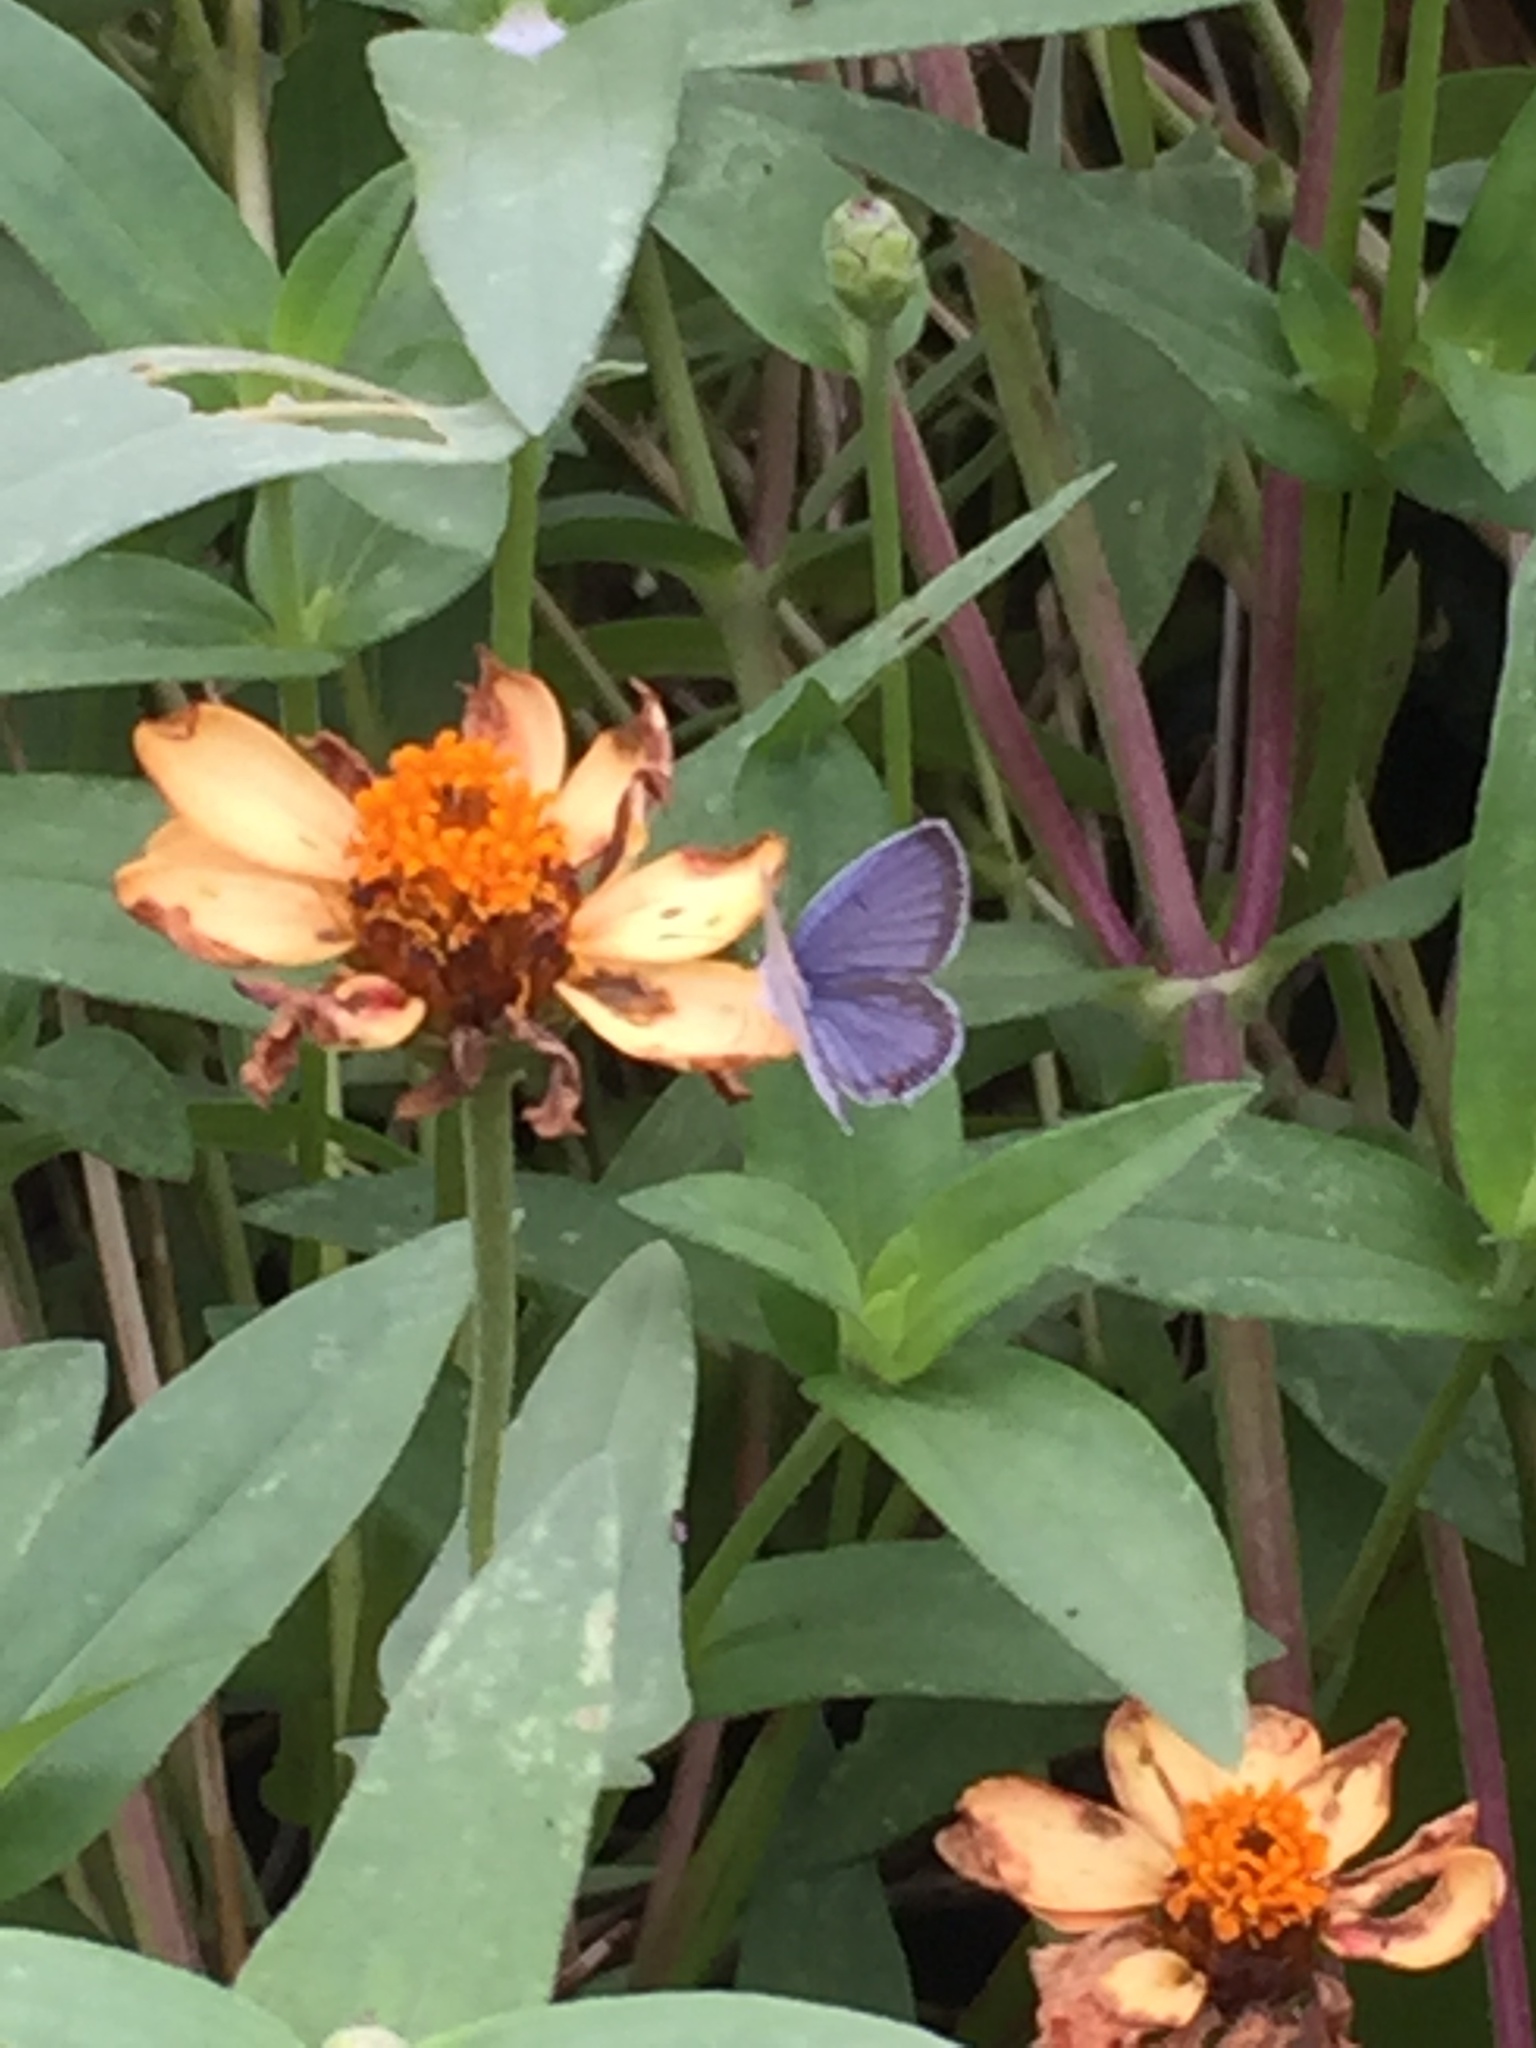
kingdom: Animalia
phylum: Arthropoda
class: Insecta
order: Lepidoptera
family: Lycaenidae
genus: Elkalyce
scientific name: Elkalyce comyntas
